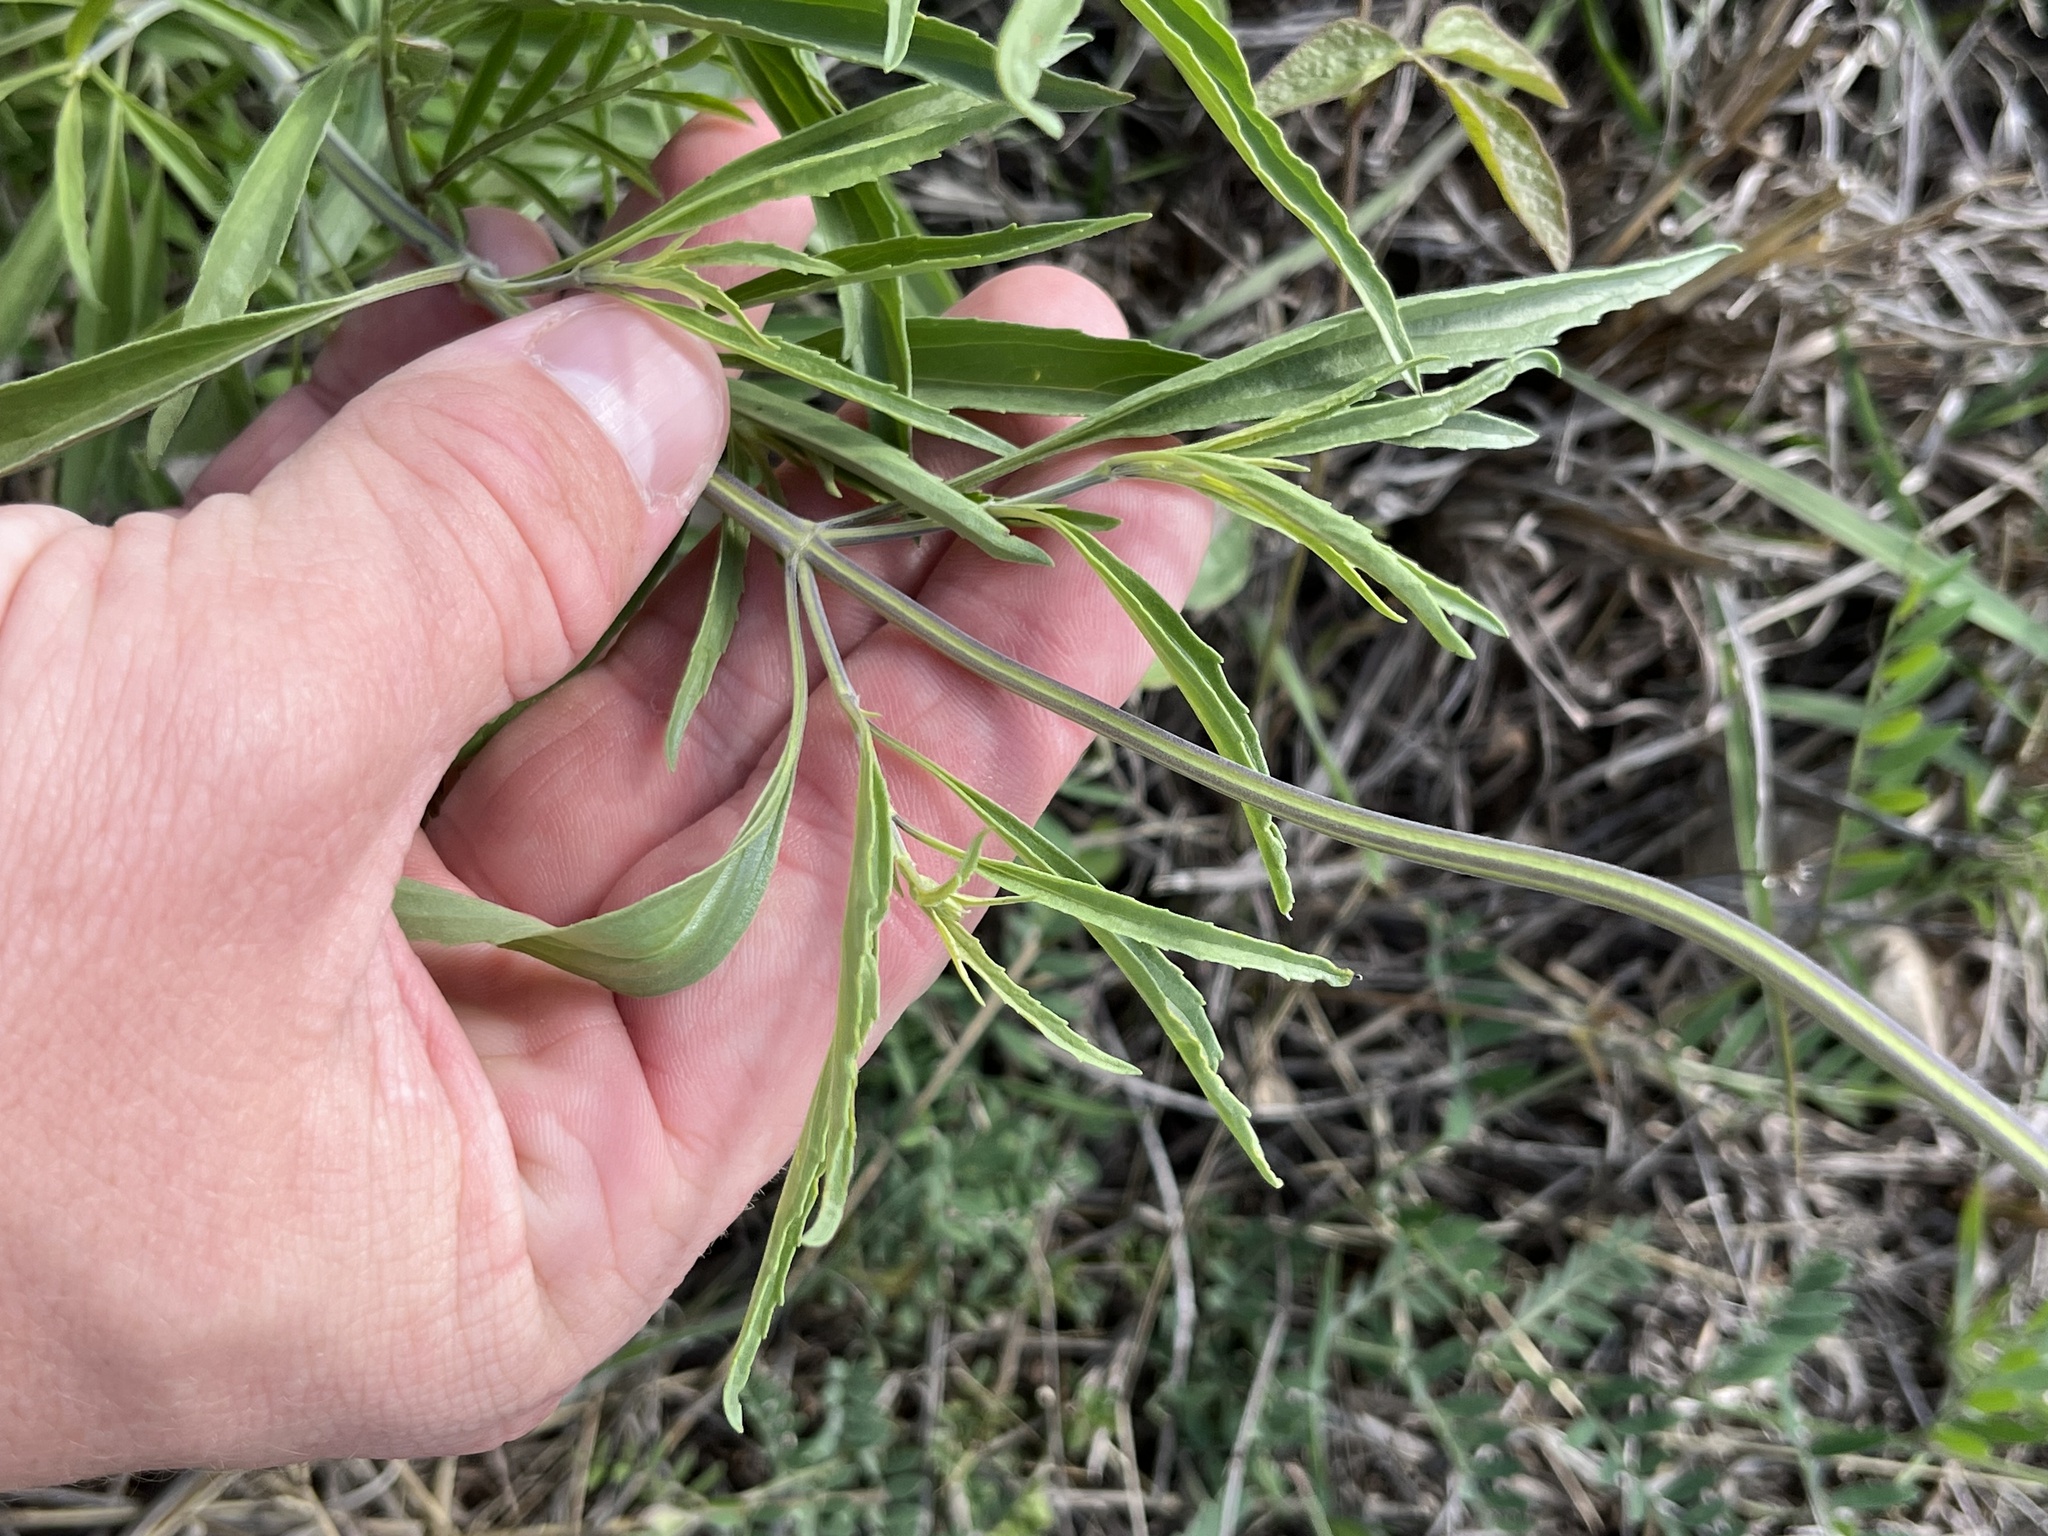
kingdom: Plantae
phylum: Tracheophyta
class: Magnoliopsida
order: Lamiales
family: Lamiaceae
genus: Salvia
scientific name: Salvia farinacea
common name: Mealy sage
